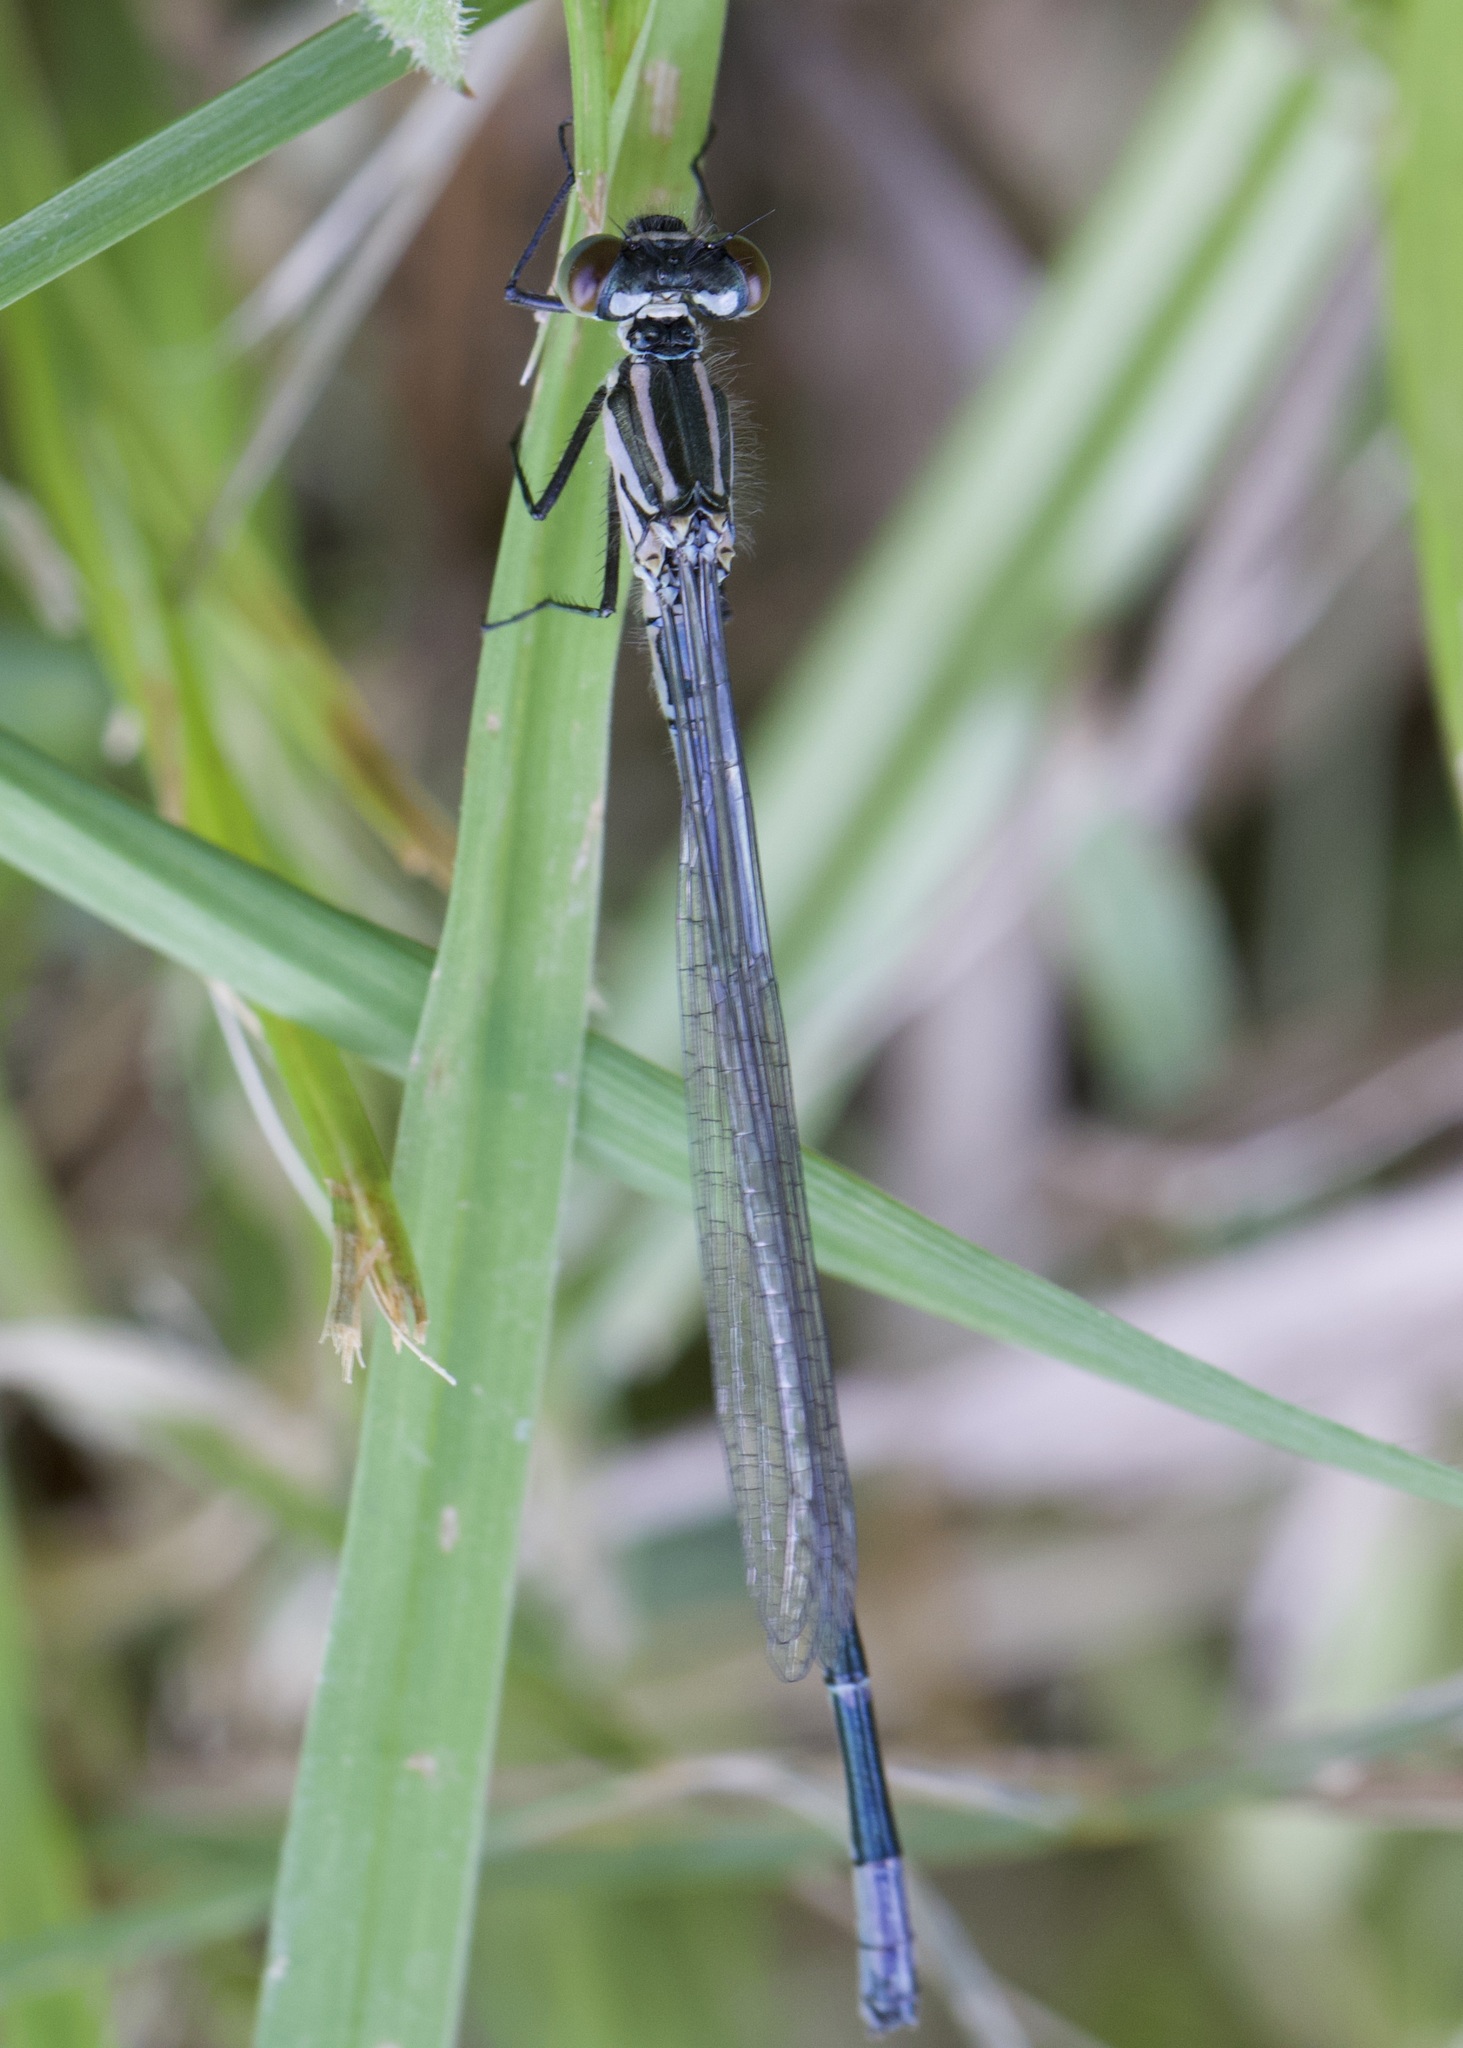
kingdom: Animalia
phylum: Arthropoda
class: Insecta
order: Odonata
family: Coenagrionidae
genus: Coenagrion
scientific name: Coenagrion puella
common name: Azure damselfly
